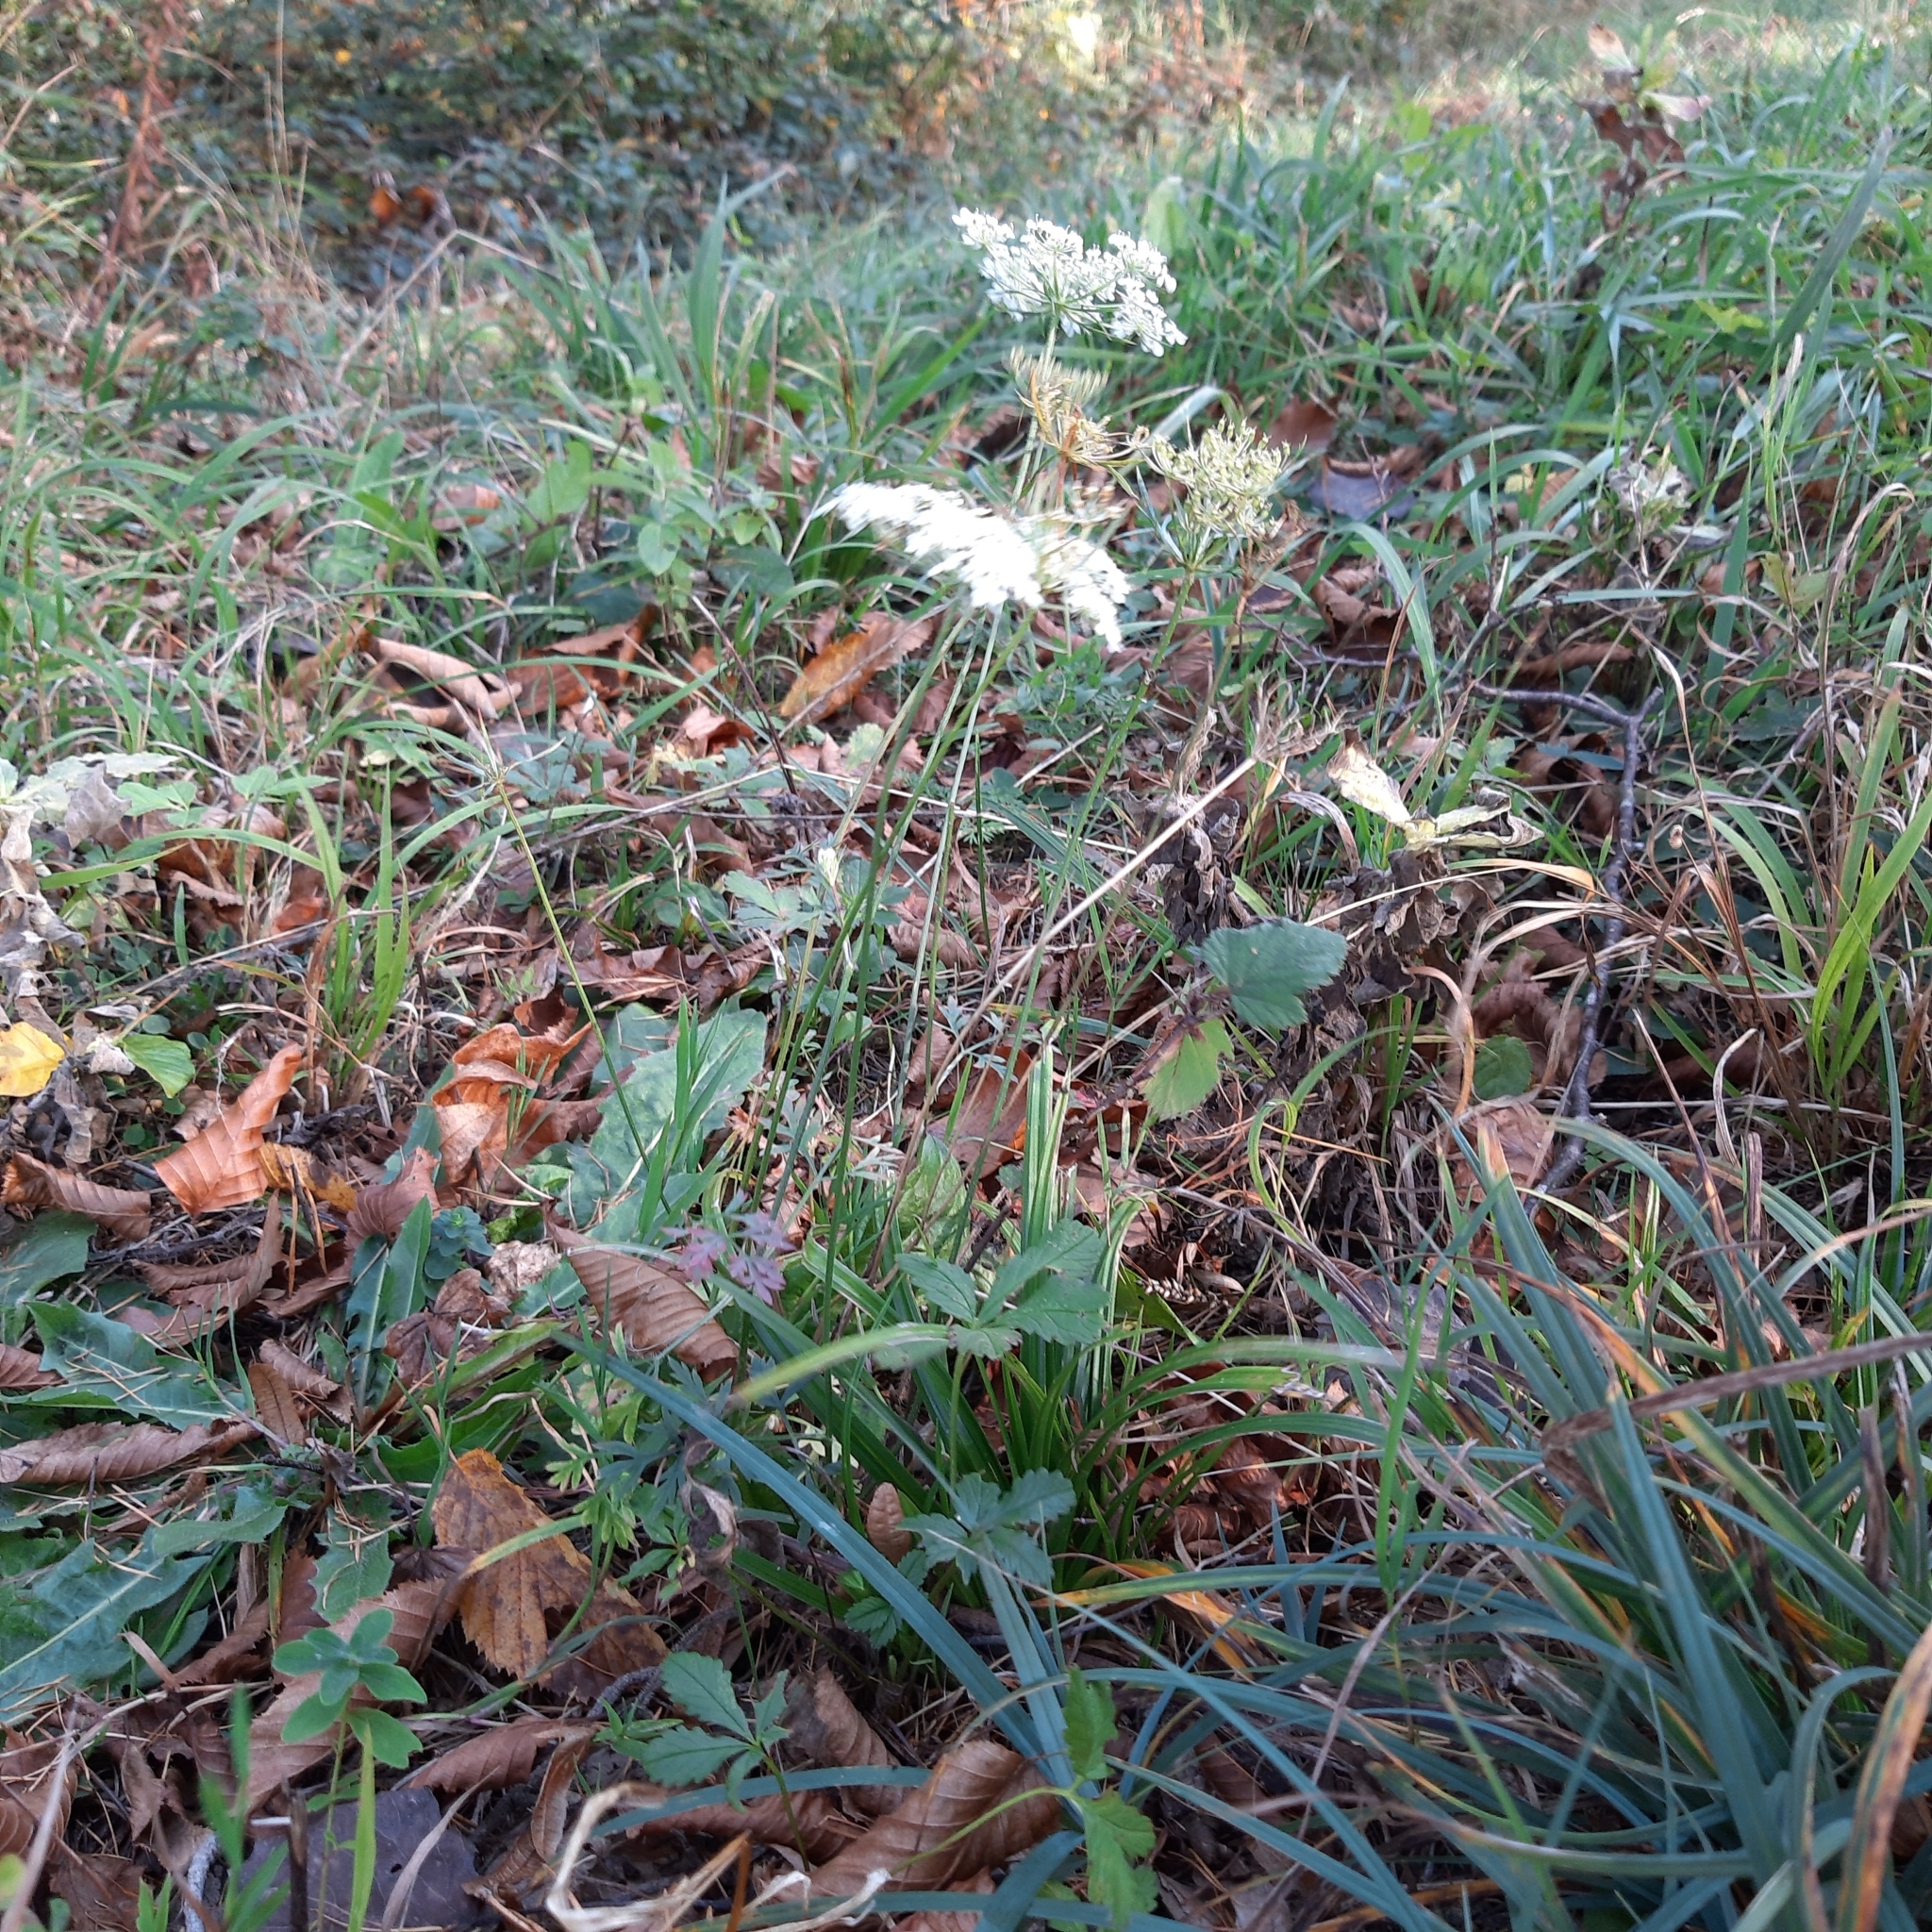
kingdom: Plantae
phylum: Tracheophyta
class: Magnoliopsida
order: Apiales
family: Apiaceae
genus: Daucus
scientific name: Daucus carota
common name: Wild carrot
